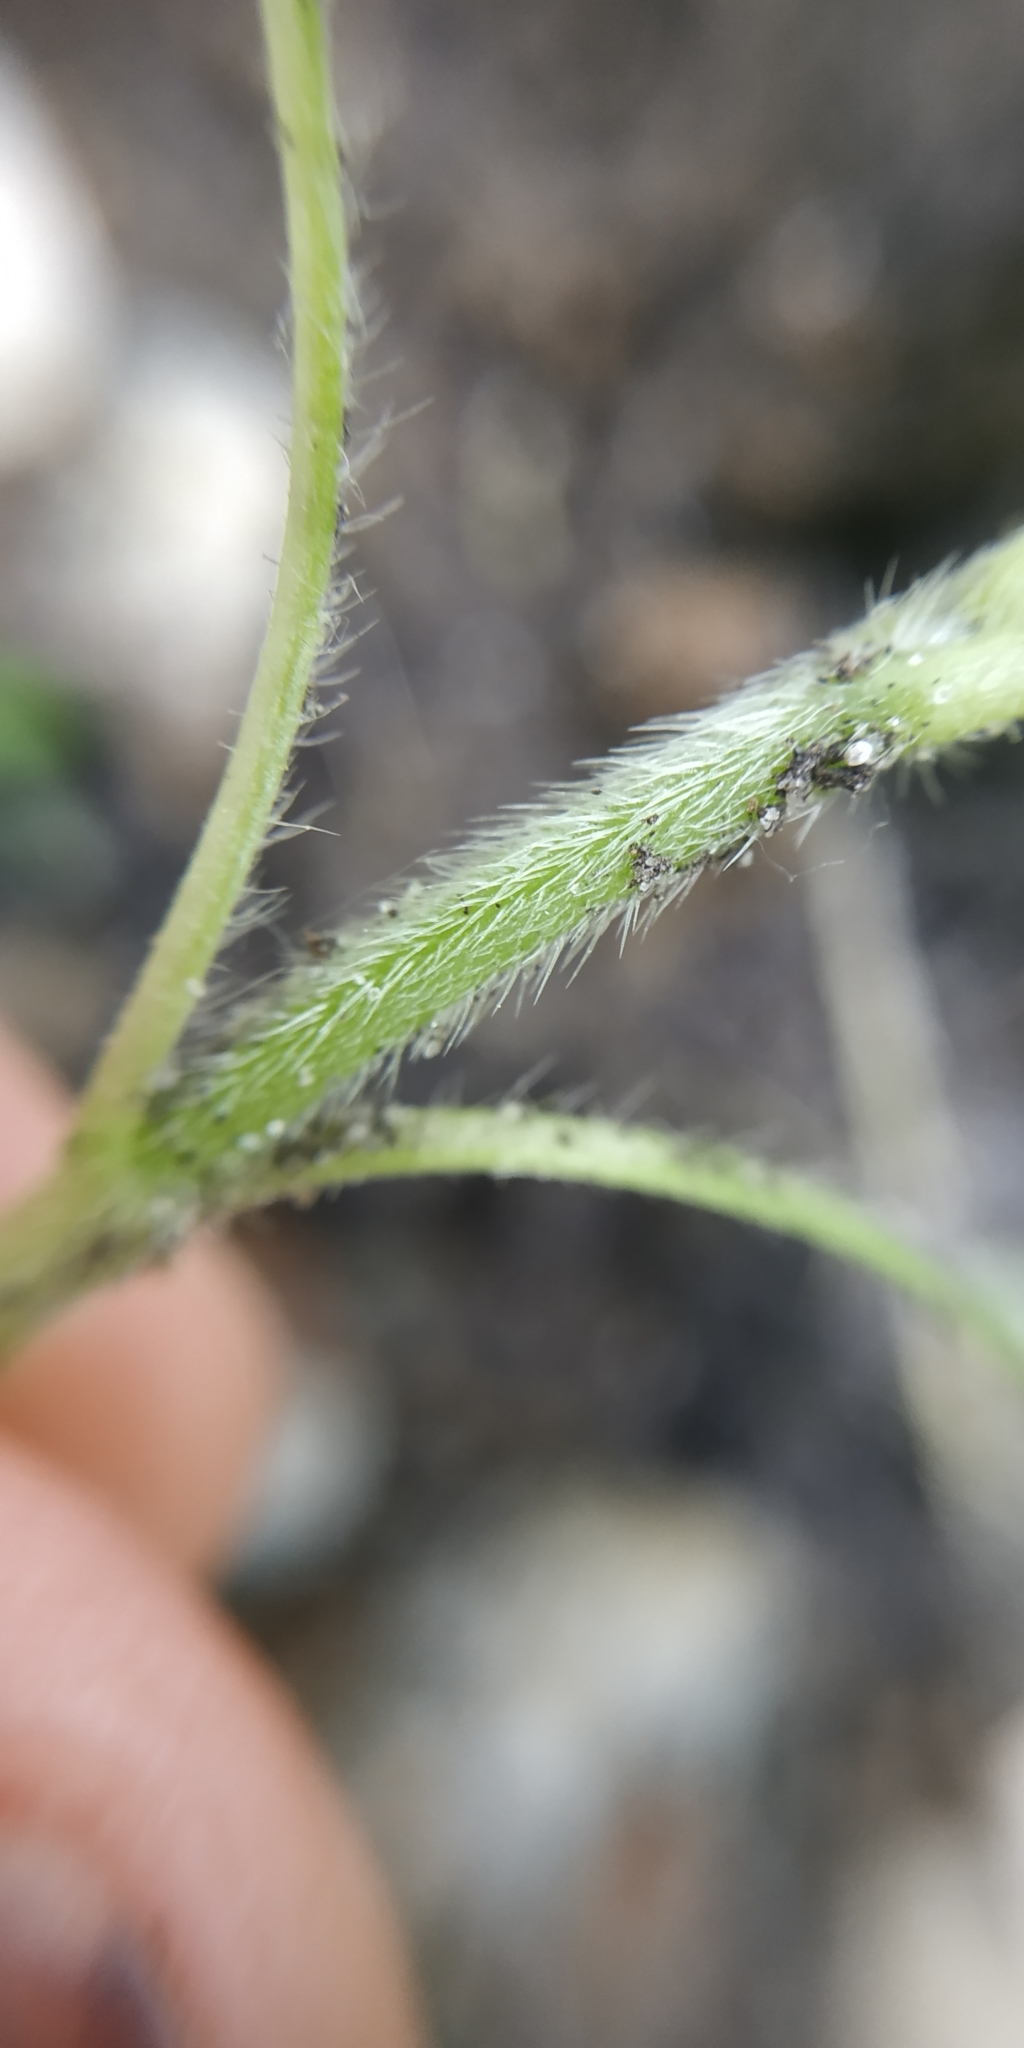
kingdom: Plantae
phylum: Tracheophyta
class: Magnoliopsida
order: Lamiales
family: Lamiaceae
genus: Galeopsis
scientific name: Galeopsis
